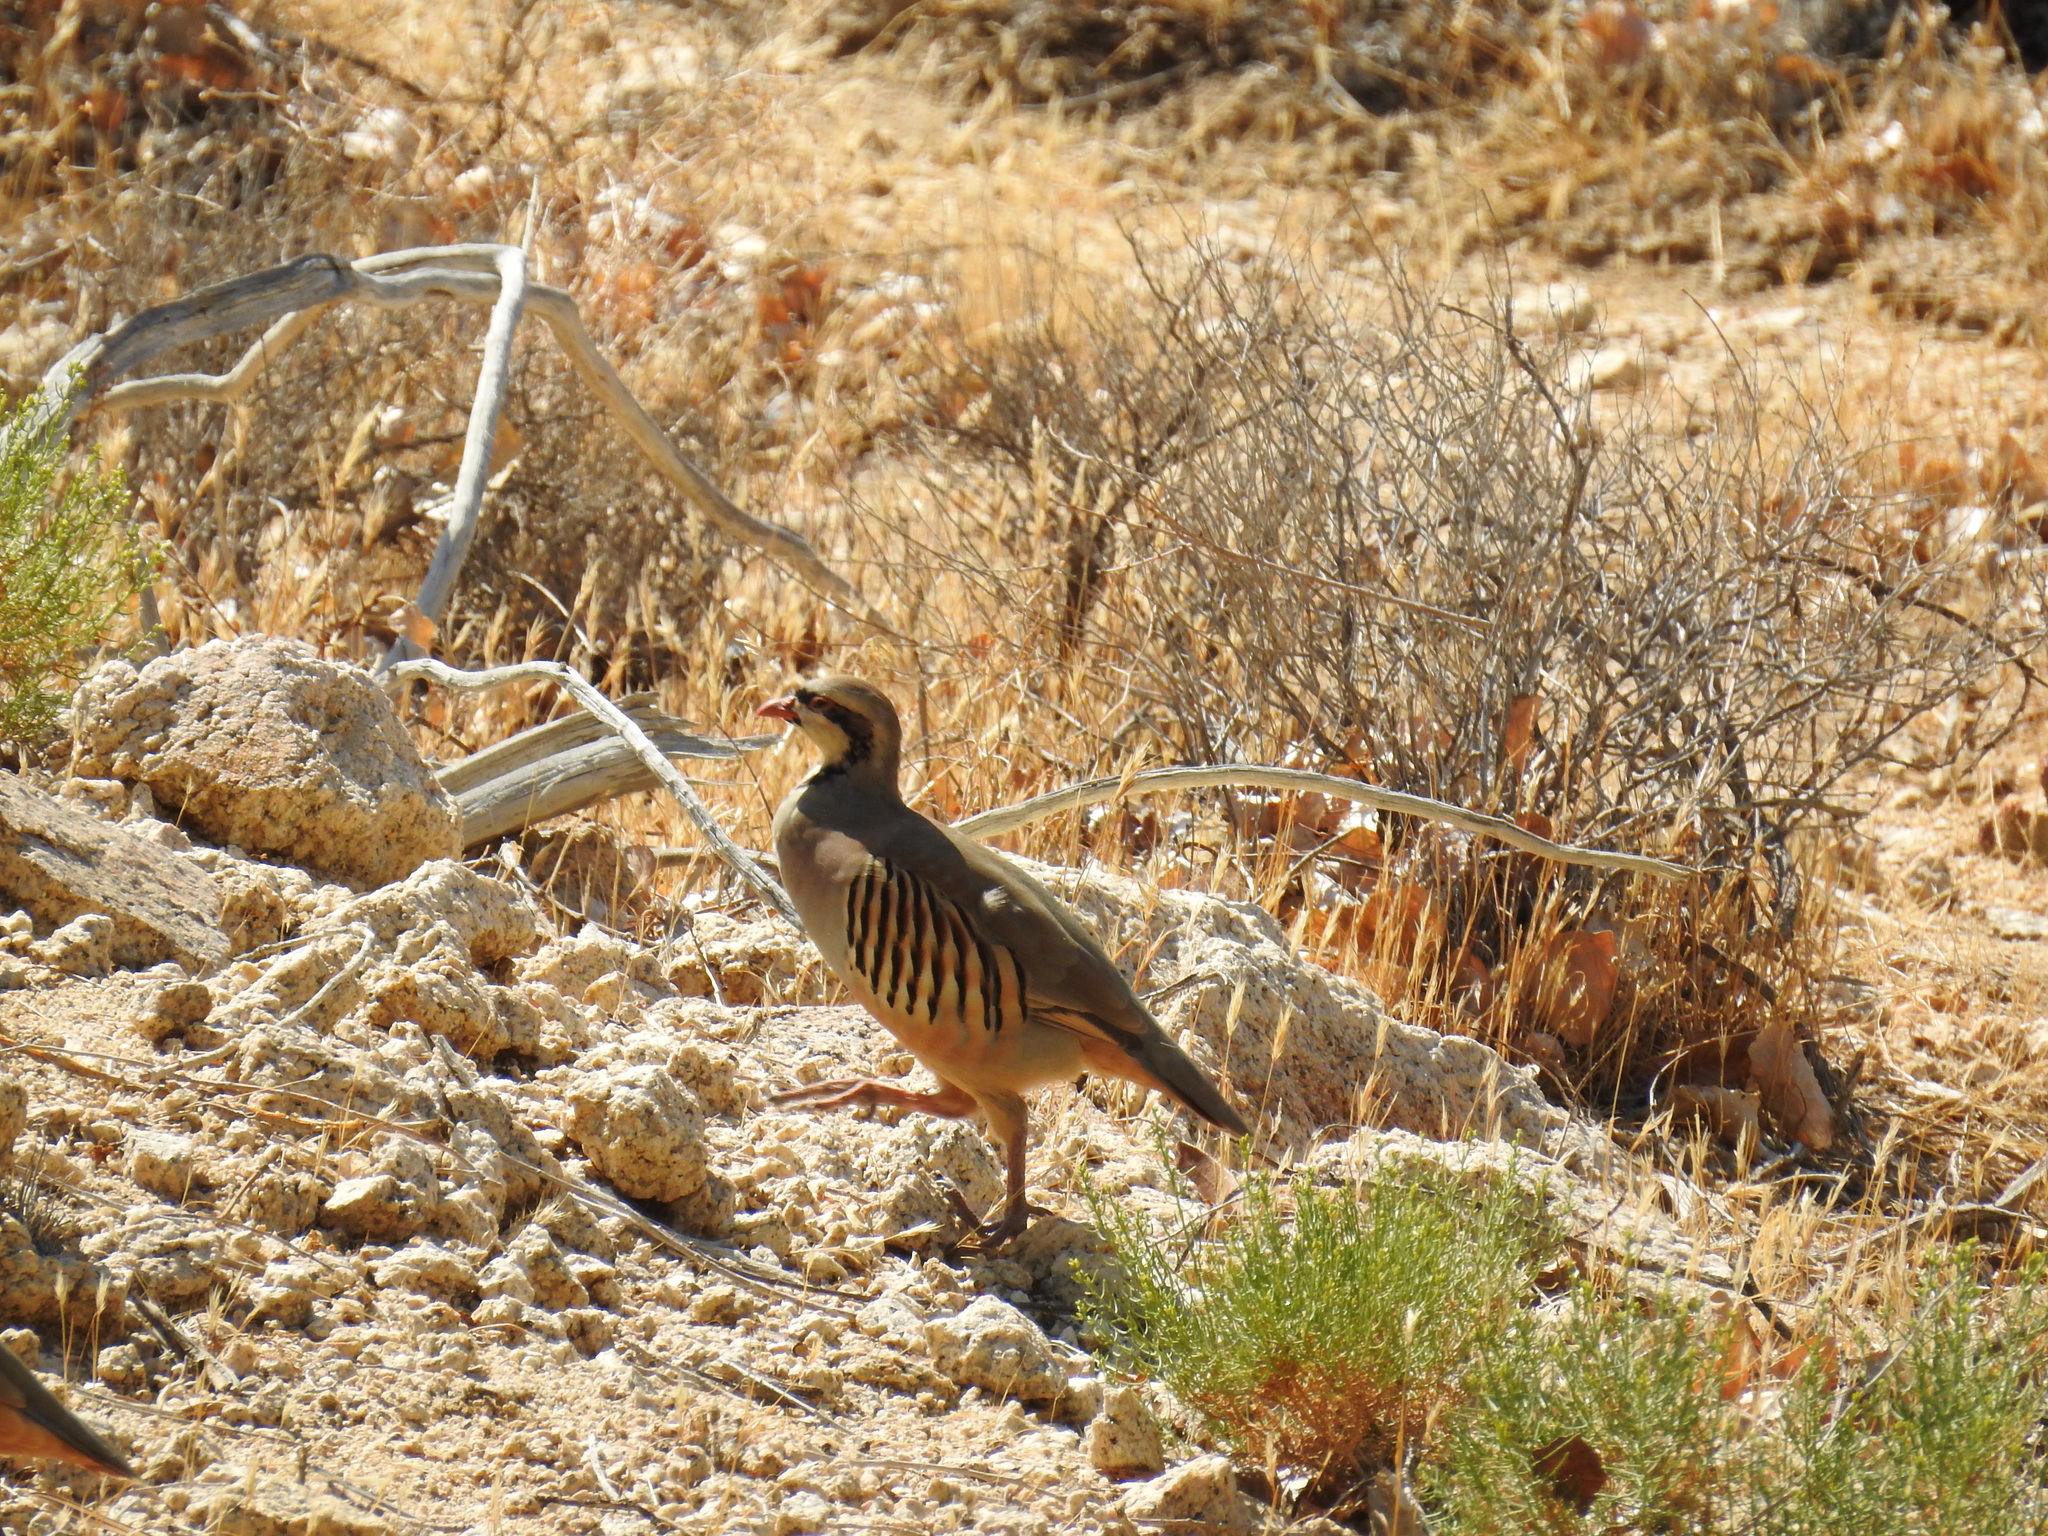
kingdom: Animalia
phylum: Chordata
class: Aves
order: Galliformes
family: Phasianidae
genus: Alectoris
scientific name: Alectoris chukar
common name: Chukar
